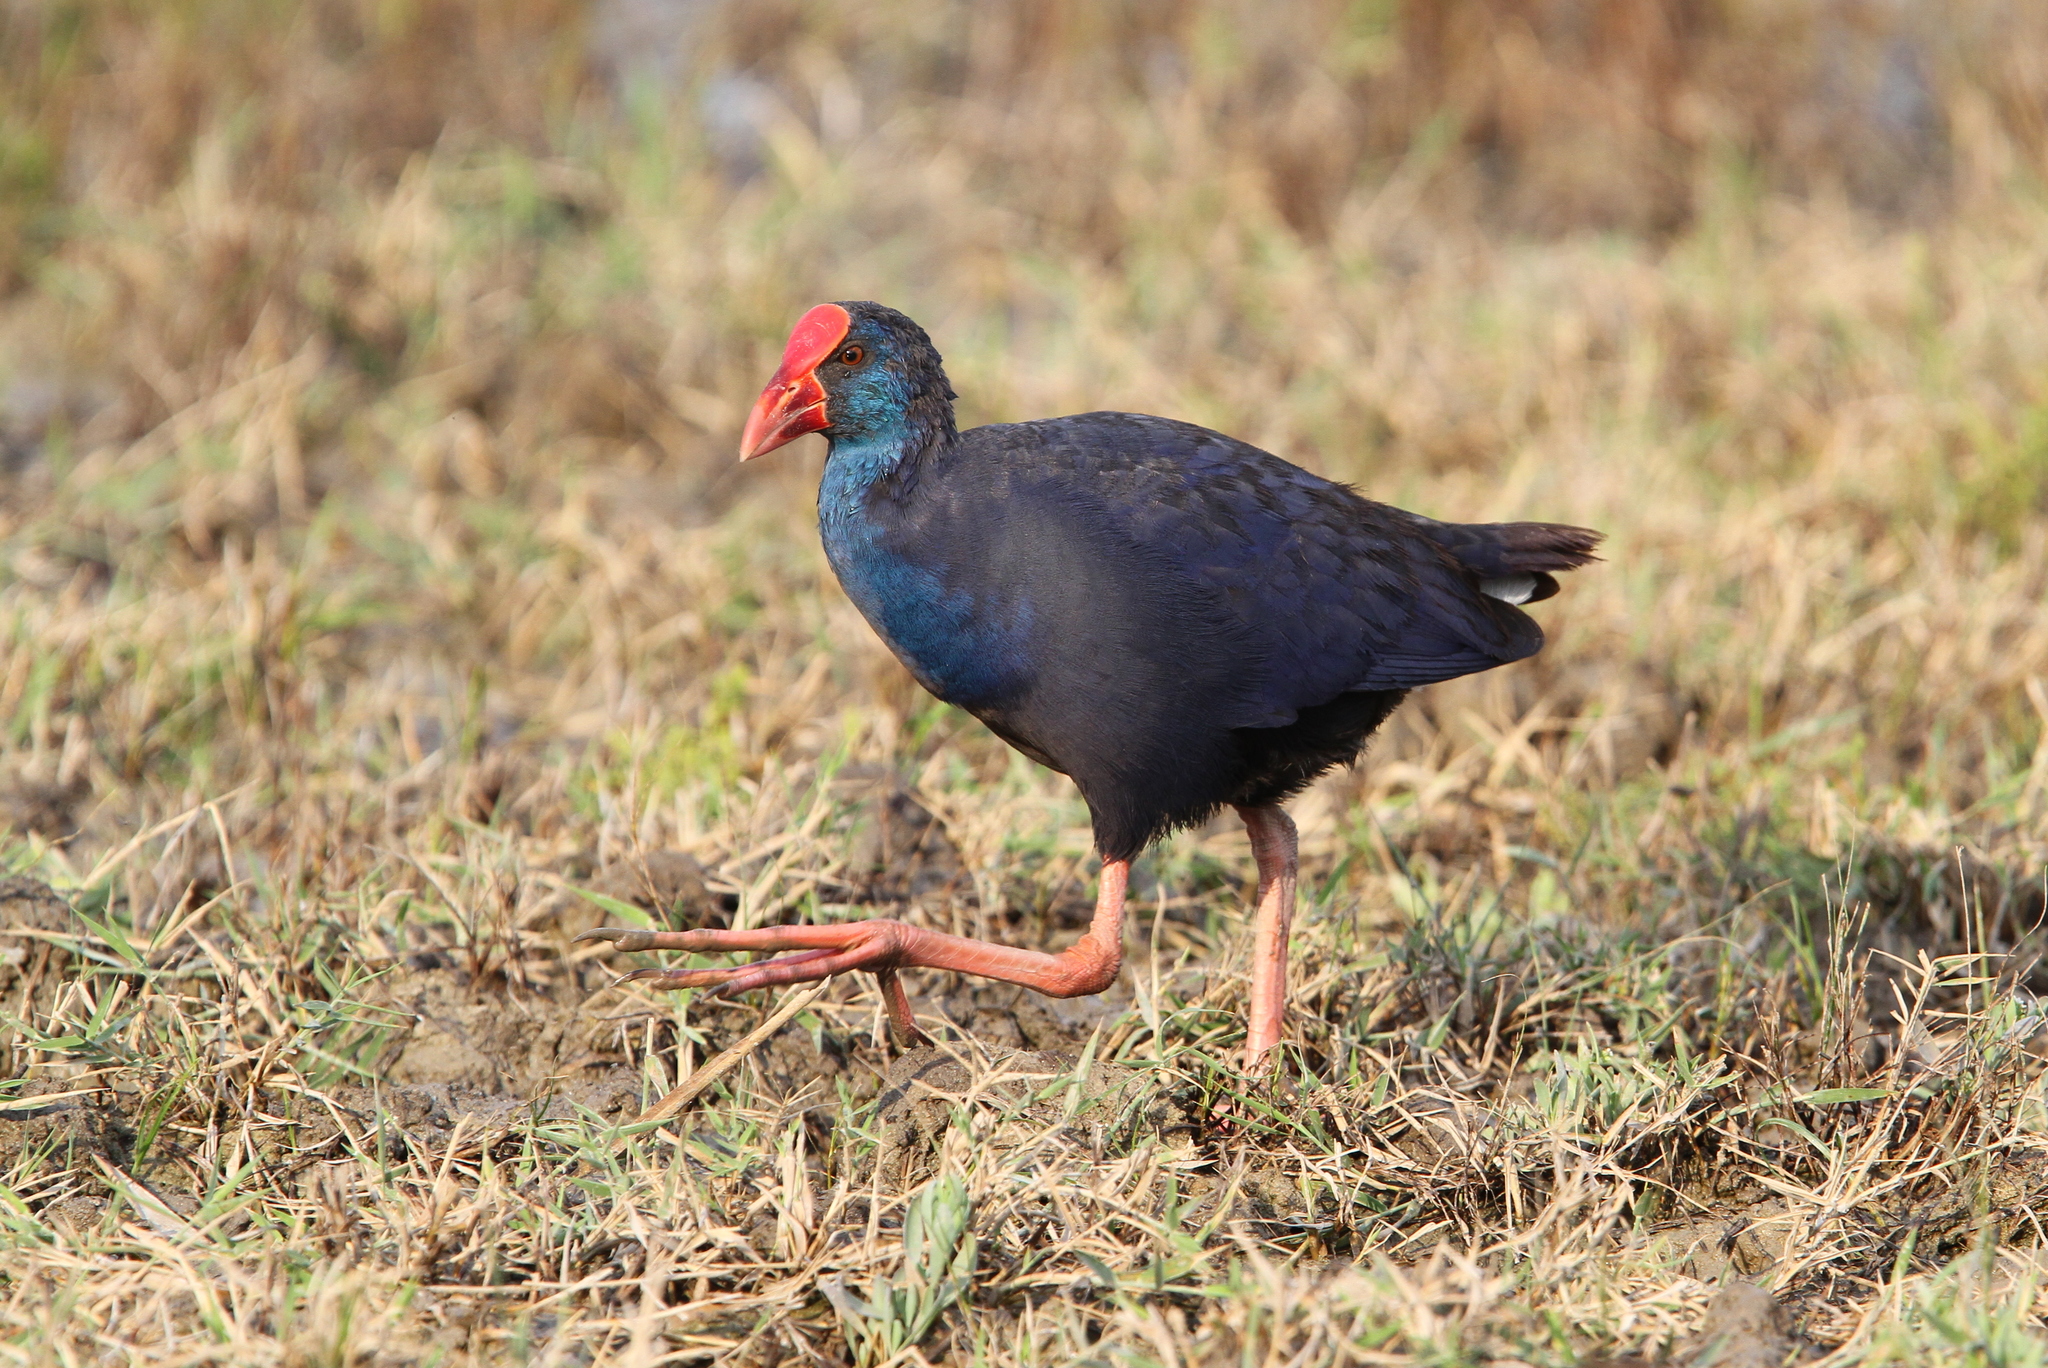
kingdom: Animalia
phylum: Chordata
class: Aves
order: Gruiformes
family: Rallidae
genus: Porphyrio
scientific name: Porphyrio porphyrio
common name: Purple swamphen
